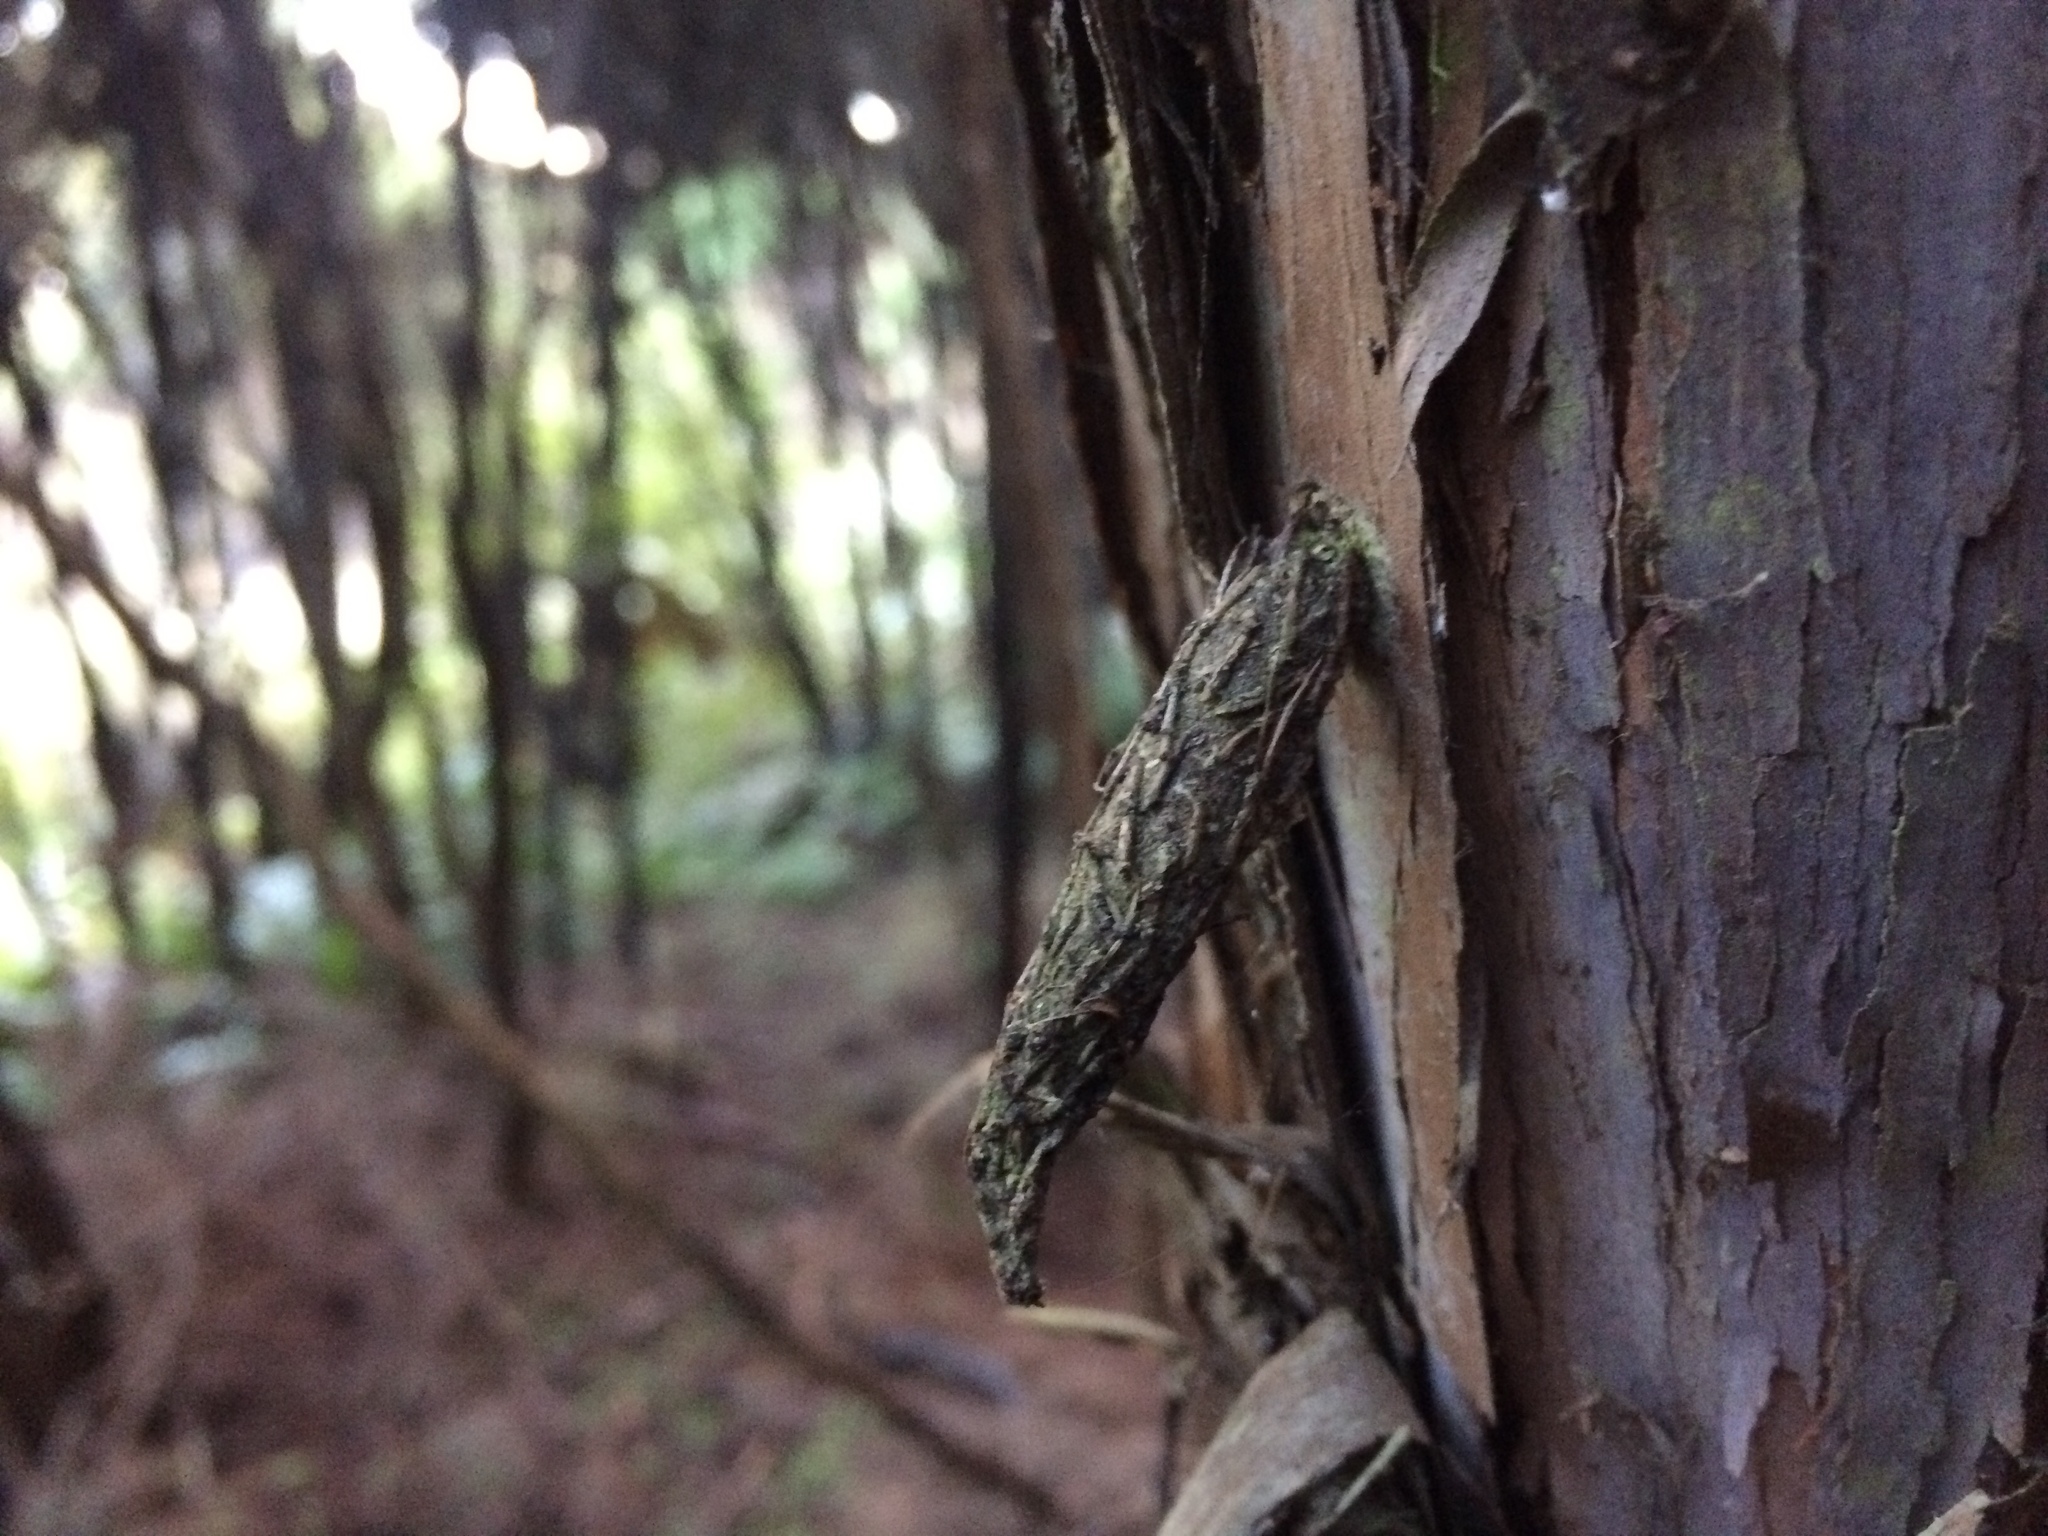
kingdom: Animalia
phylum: Arthropoda
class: Insecta
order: Lepidoptera
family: Psychidae
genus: Liothula
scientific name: Liothula omnivora
